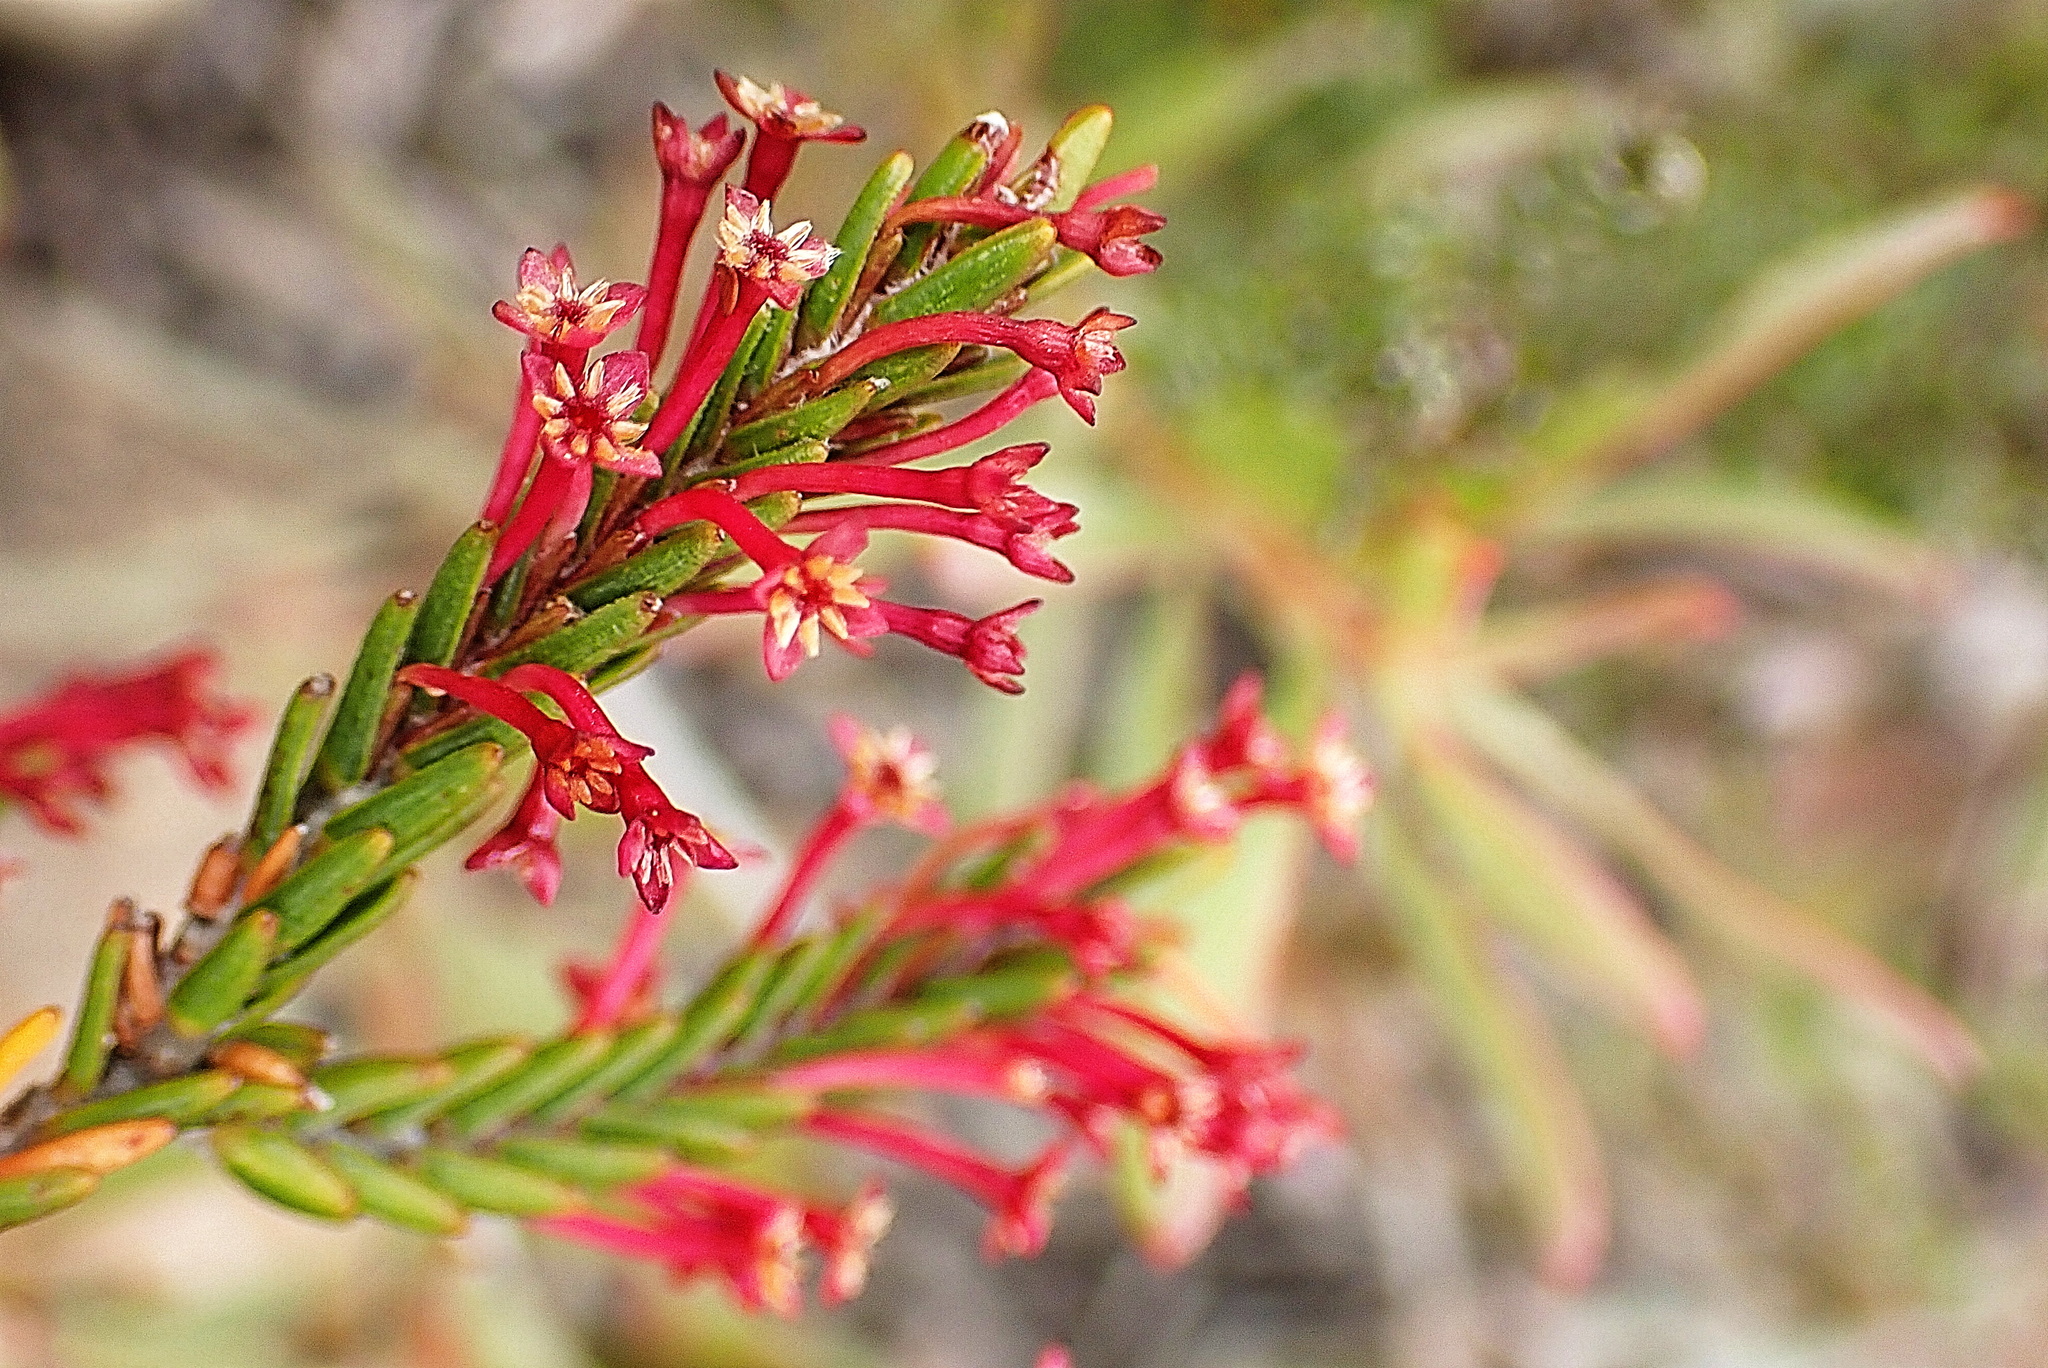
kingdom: Plantae
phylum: Tracheophyta
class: Magnoliopsida
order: Malvales
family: Thymelaeaceae
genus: Struthiola
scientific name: Struthiola ericoides
